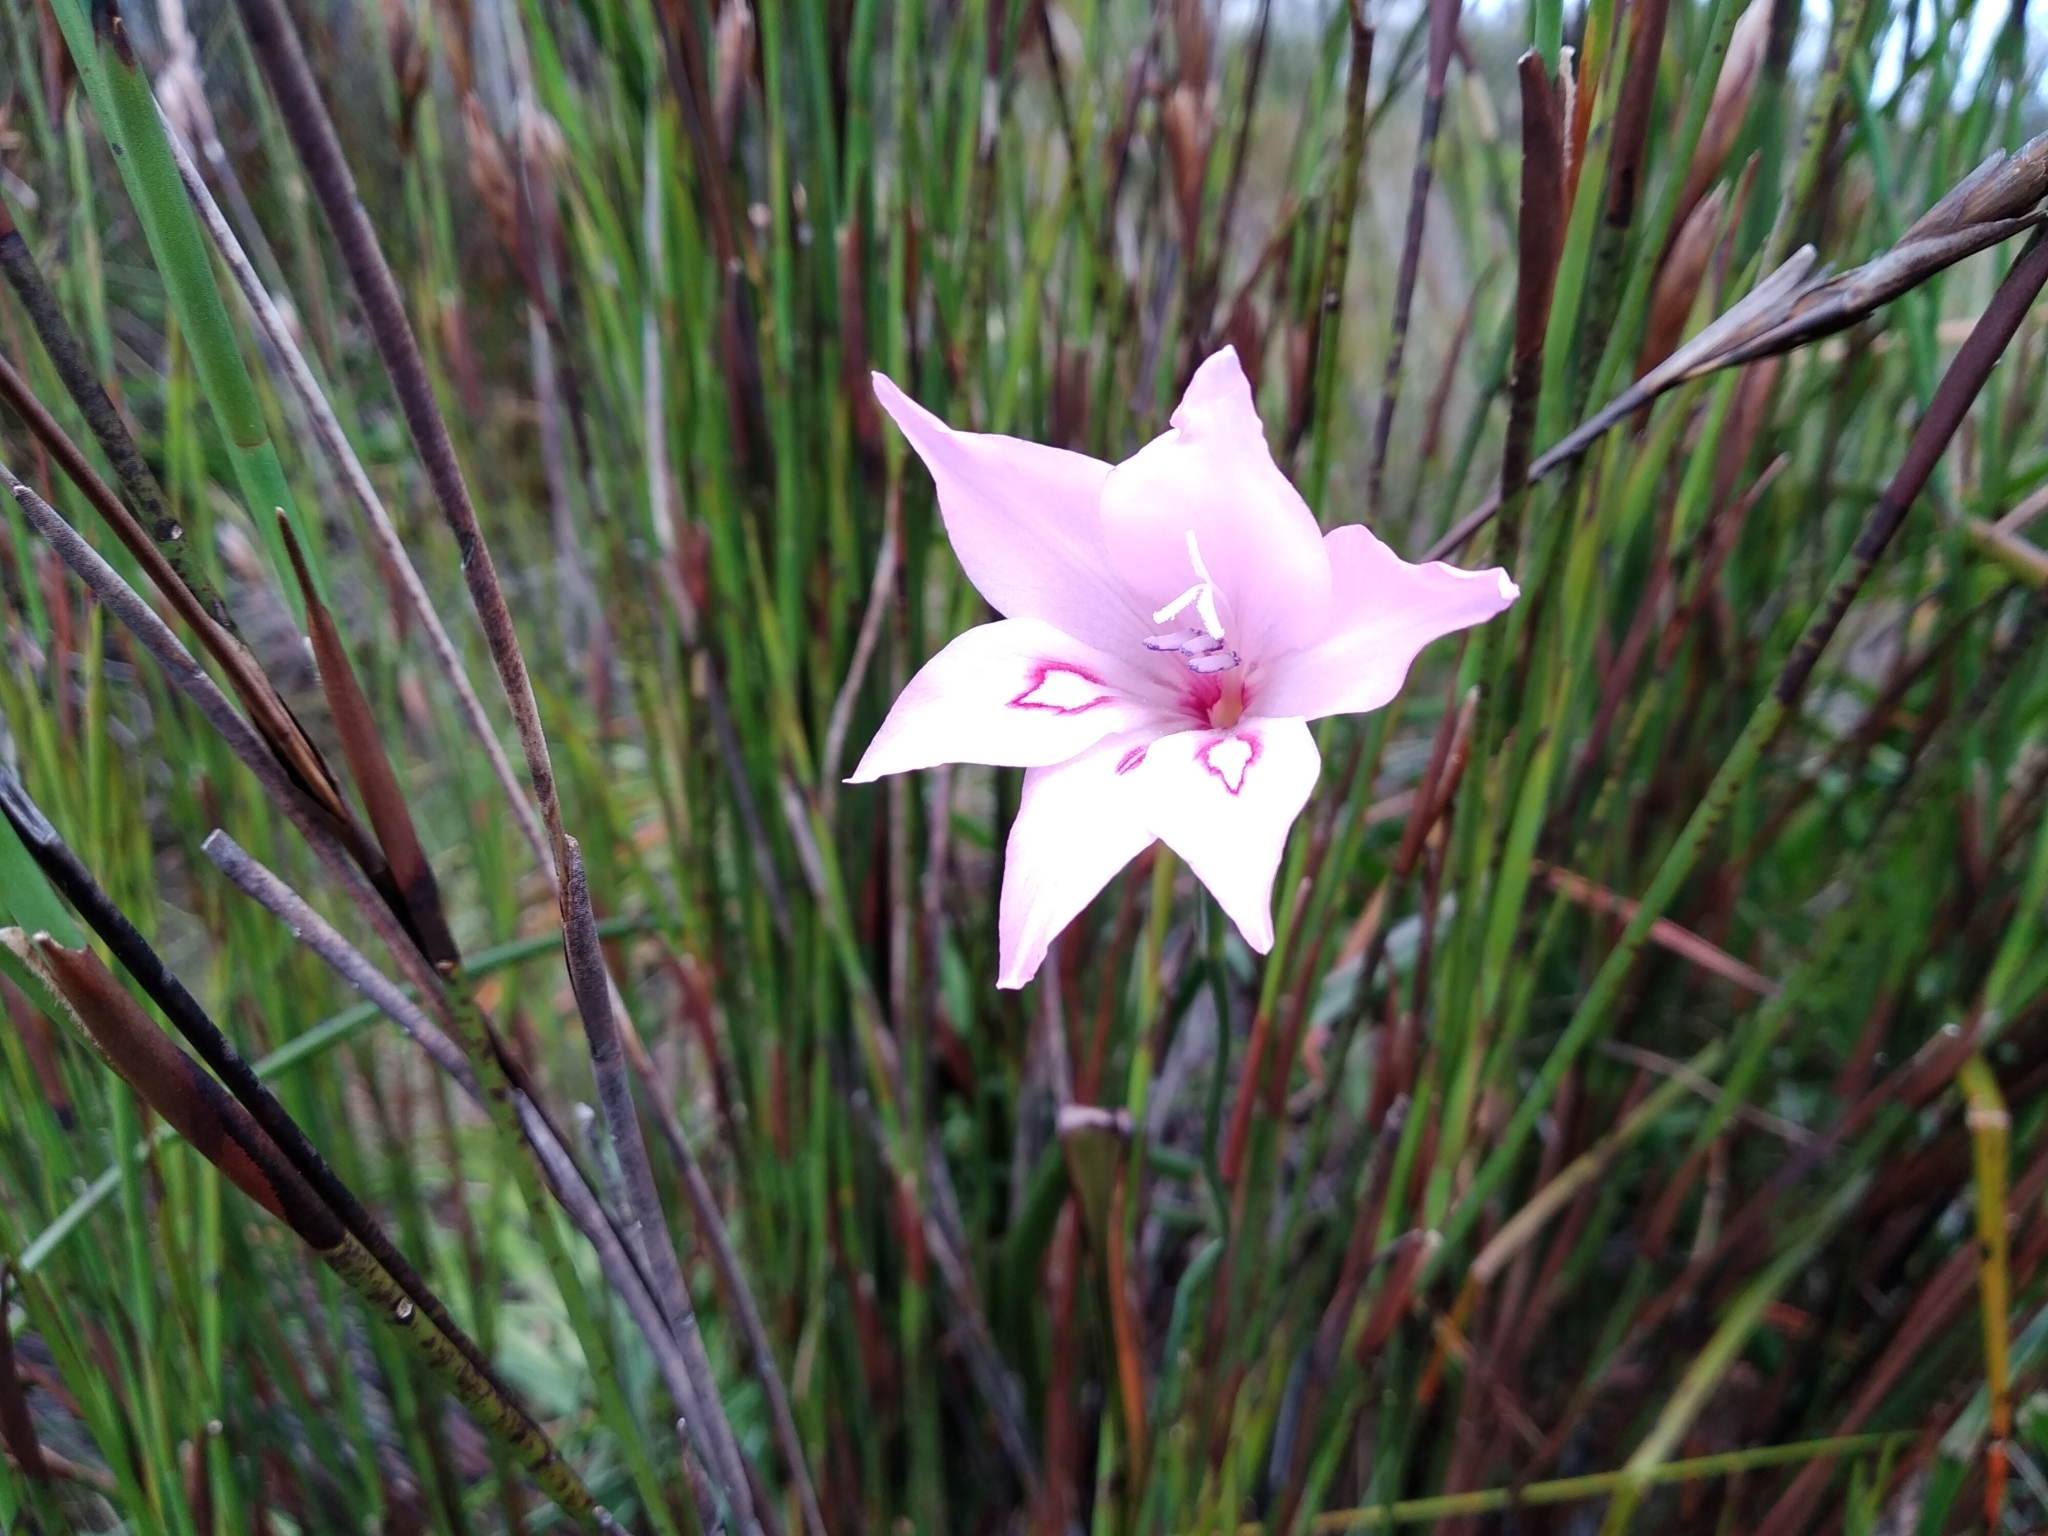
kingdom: Plantae
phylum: Tracheophyta
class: Liliopsida
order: Asparagales
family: Iridaceae
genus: Gladiolus
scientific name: Gladiolus pappei
